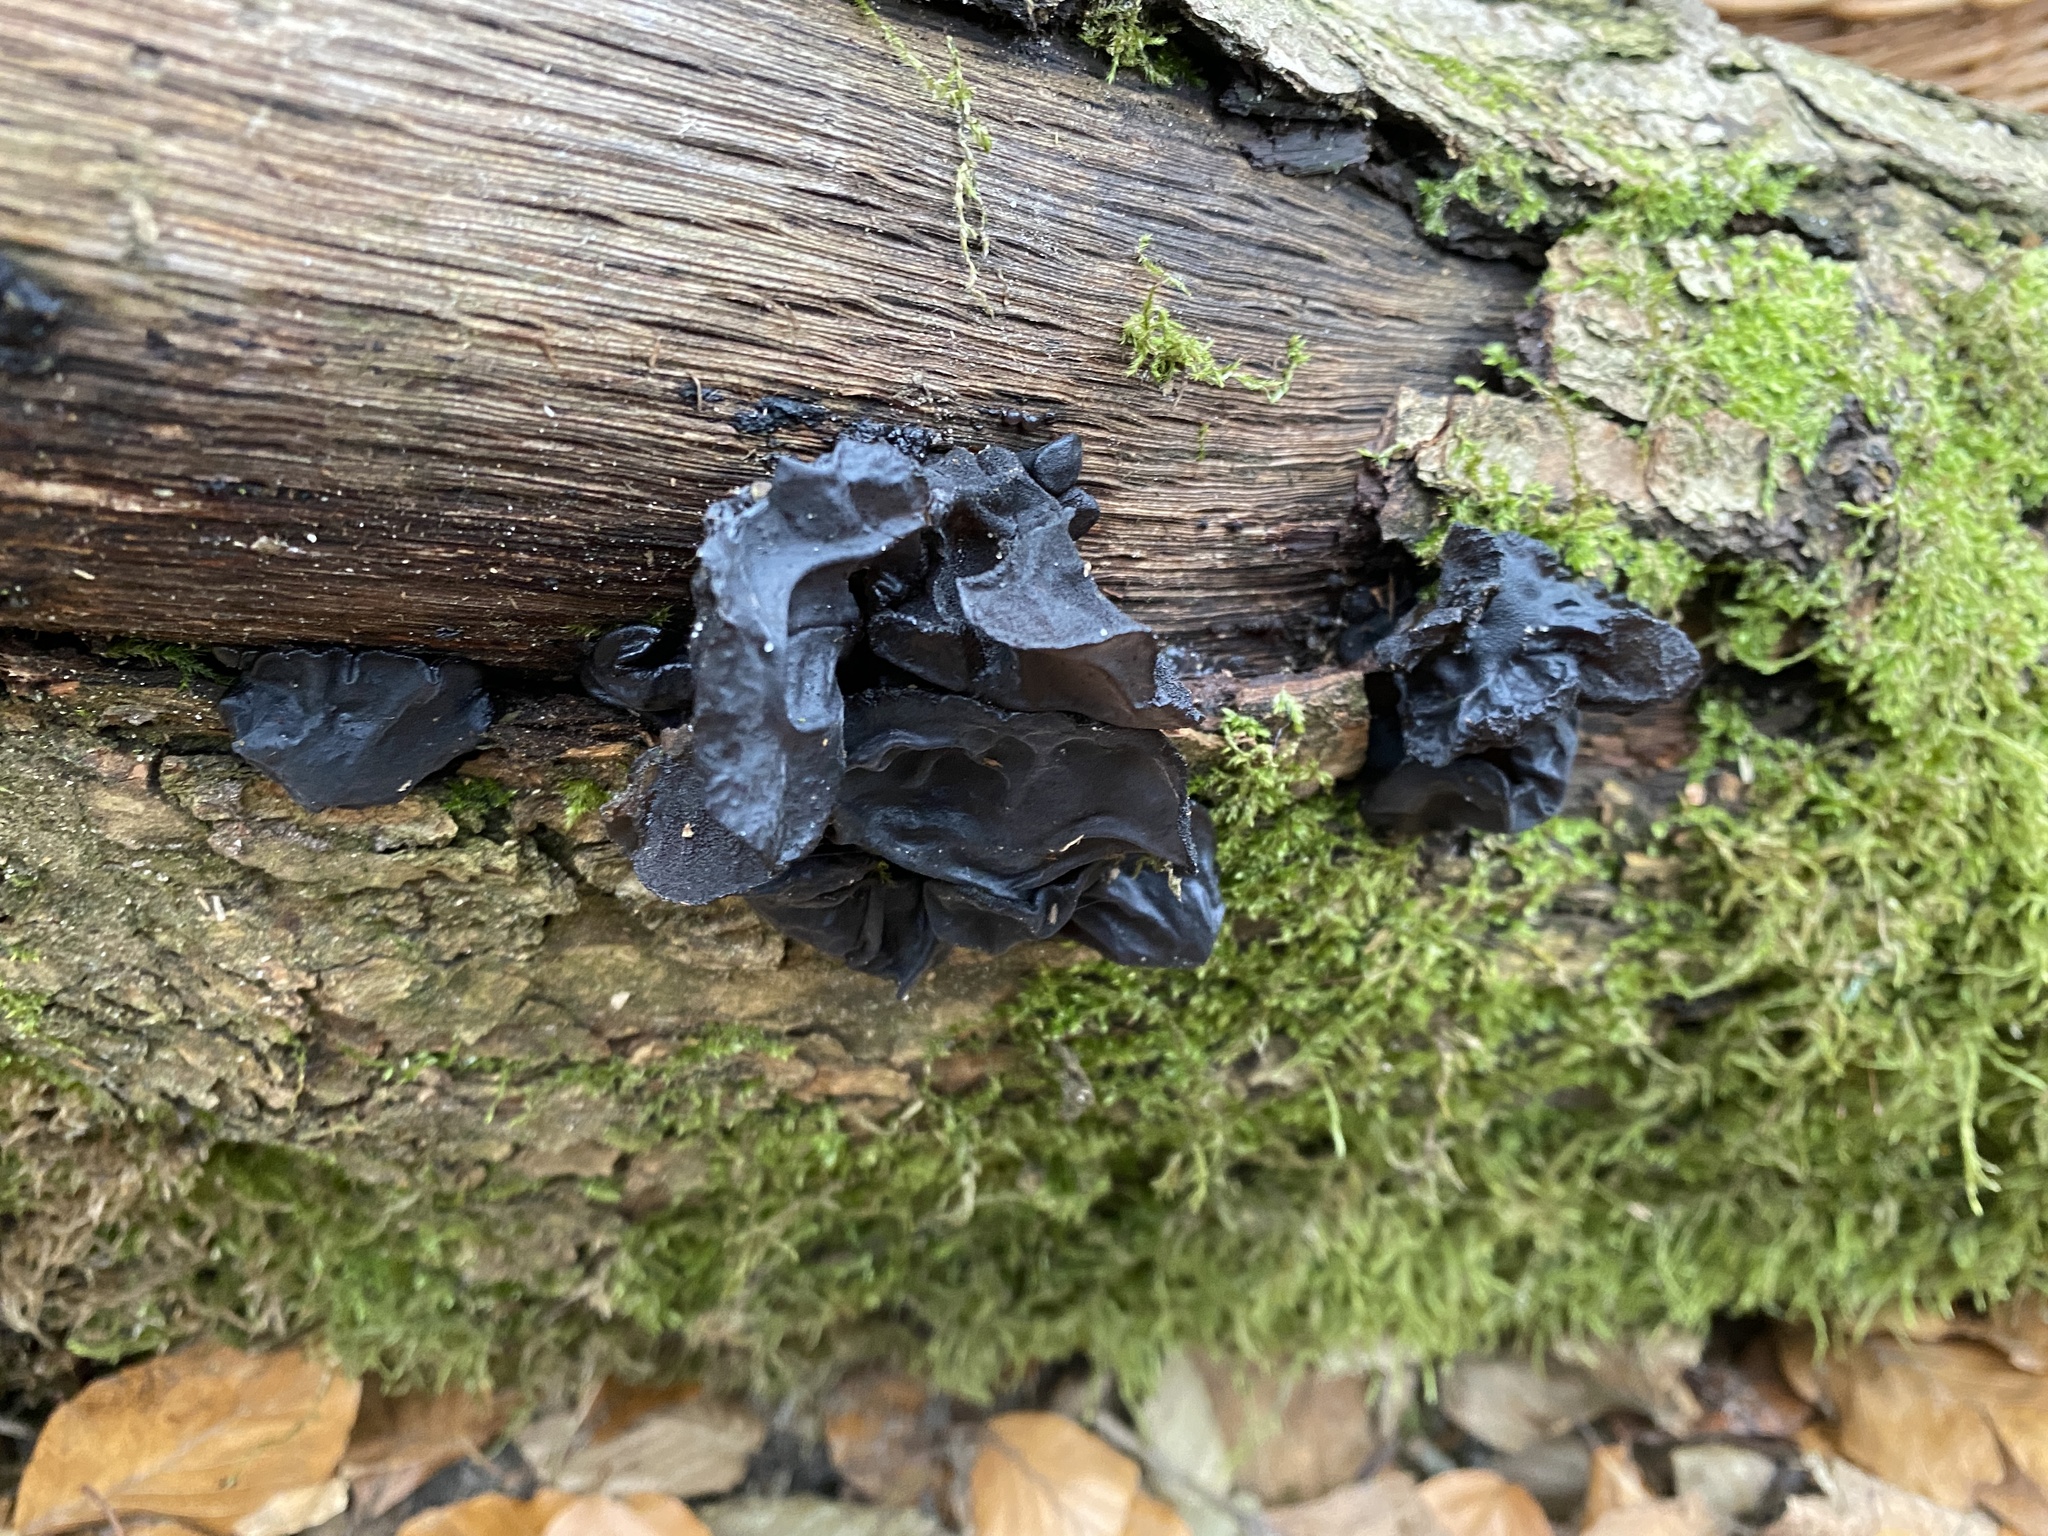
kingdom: Fungi
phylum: Basidiomycota
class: Agaricomycetes
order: Auriculariales
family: Auriculariaceae
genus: Exidia
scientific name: Exidia glandulosa
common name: Witches' butter
